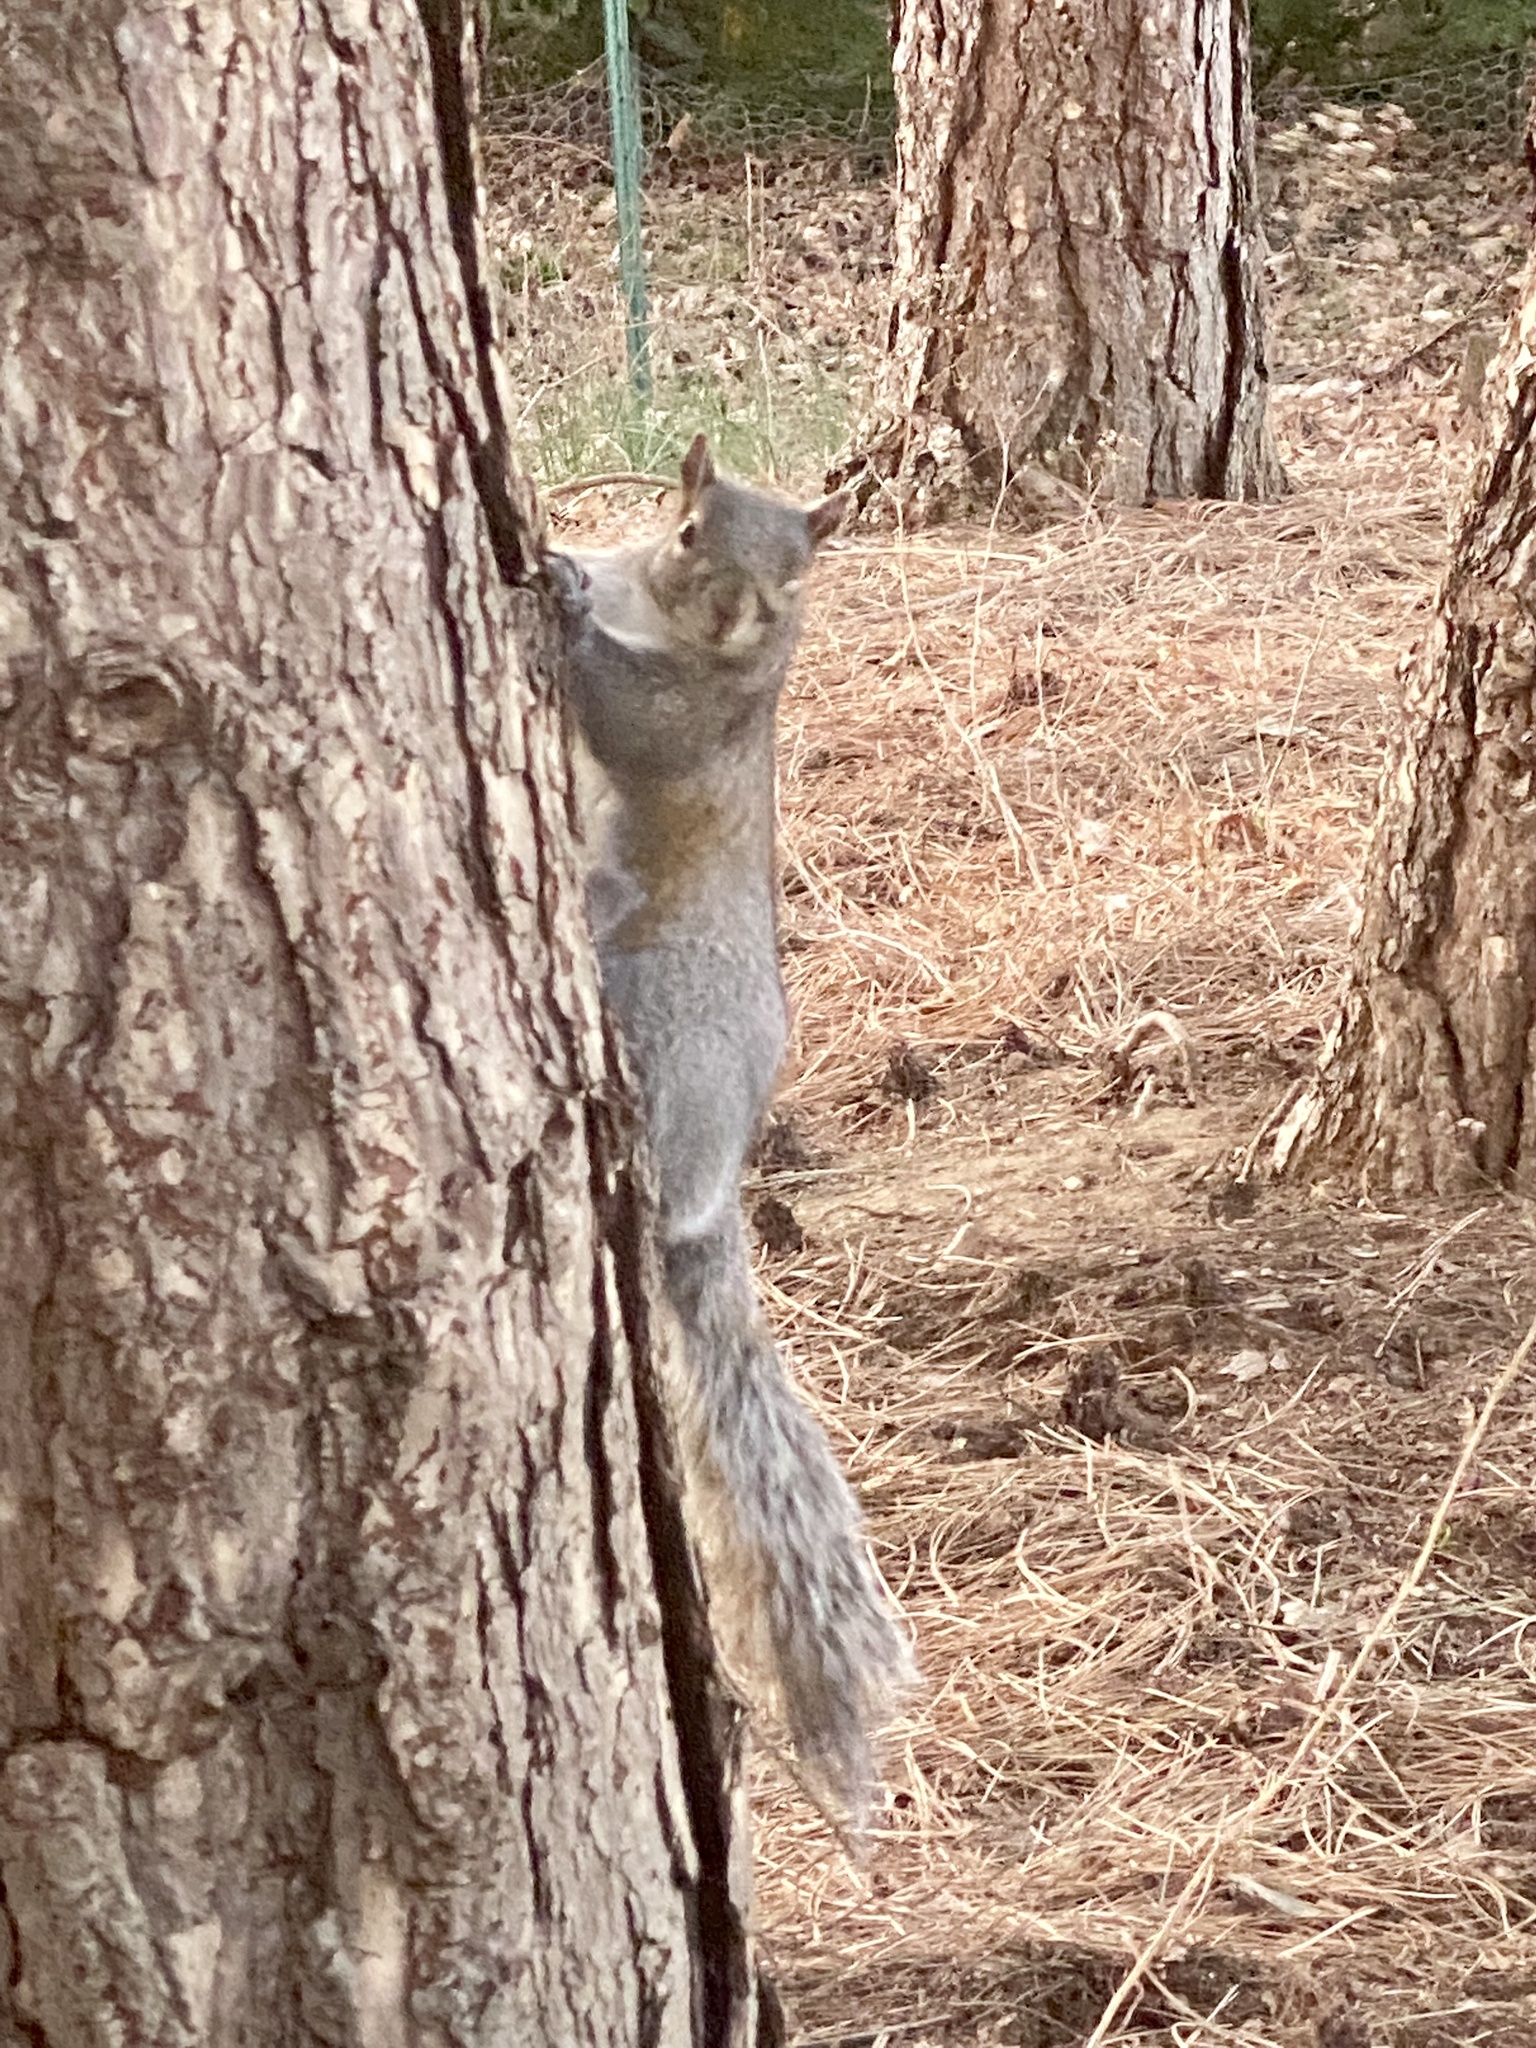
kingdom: Animalia
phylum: Chordata
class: Mammalia
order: Rodentia
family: Sciuridae
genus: Sciurus
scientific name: Sciurus carolinensis
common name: Eastern gray squirrel
